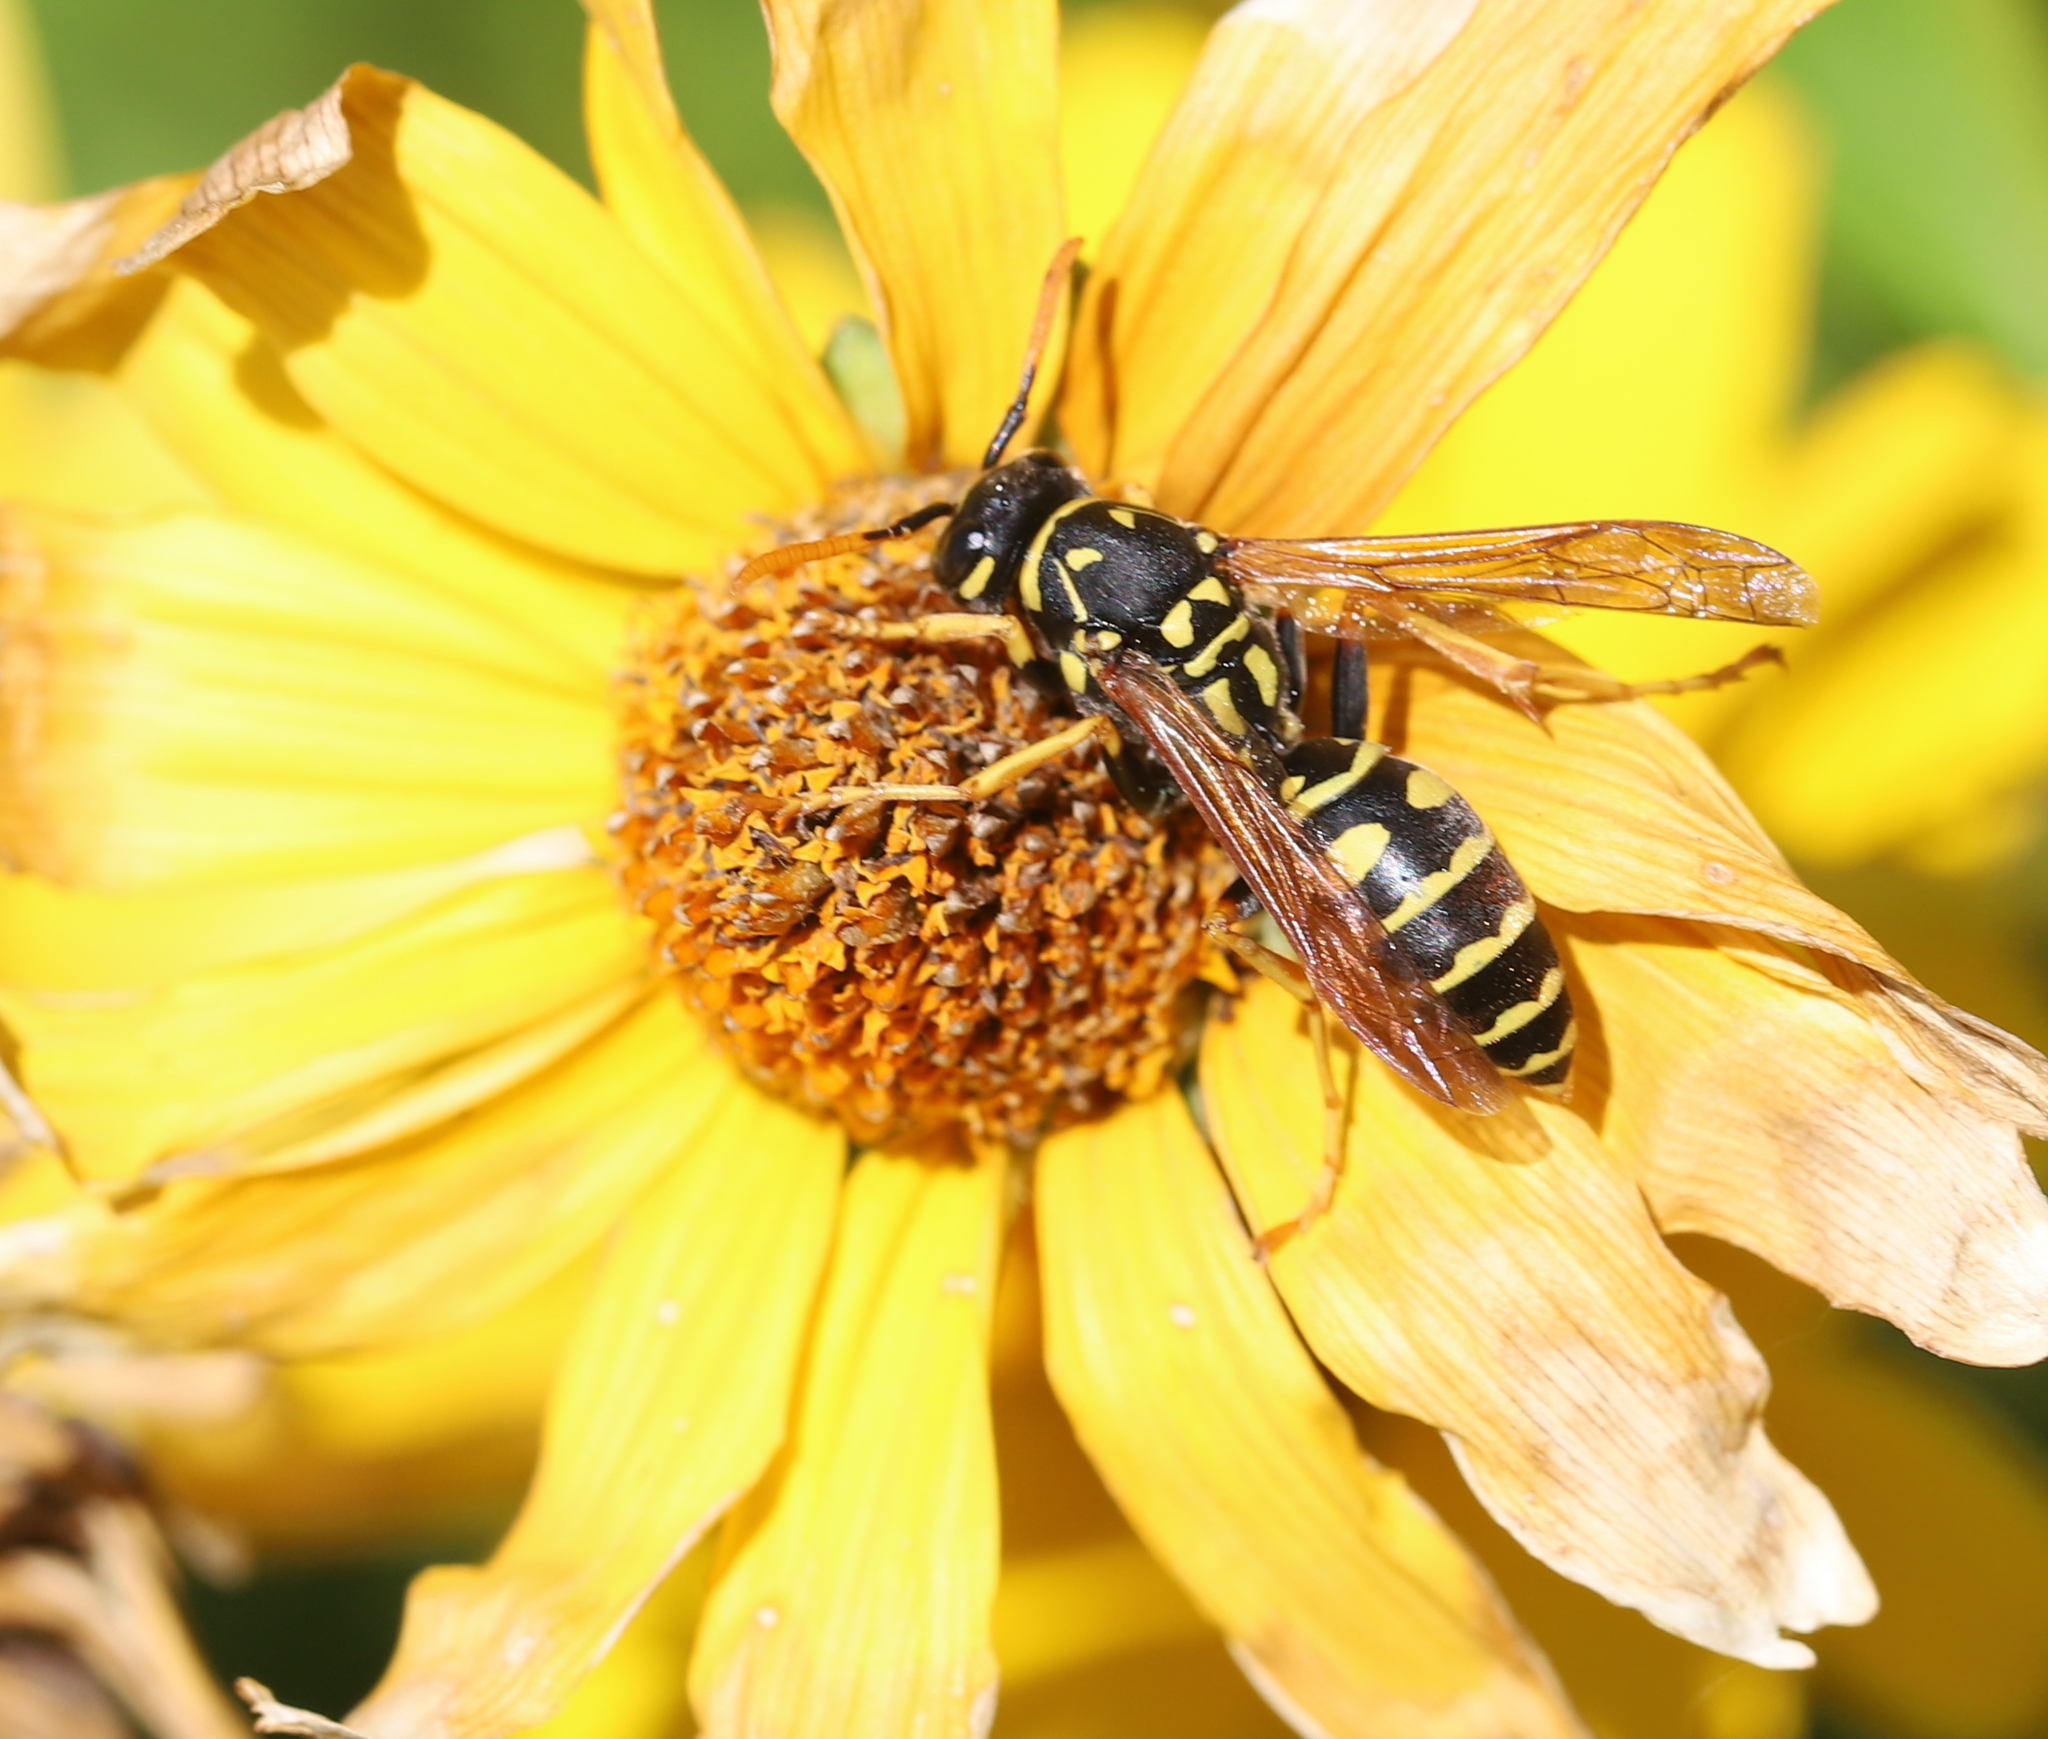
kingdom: Animalia
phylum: Arthropoda
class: Insecta
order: Hymenoptera
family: Eumenidae
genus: Polistes
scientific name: Polistes dominula
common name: Paper wasp
